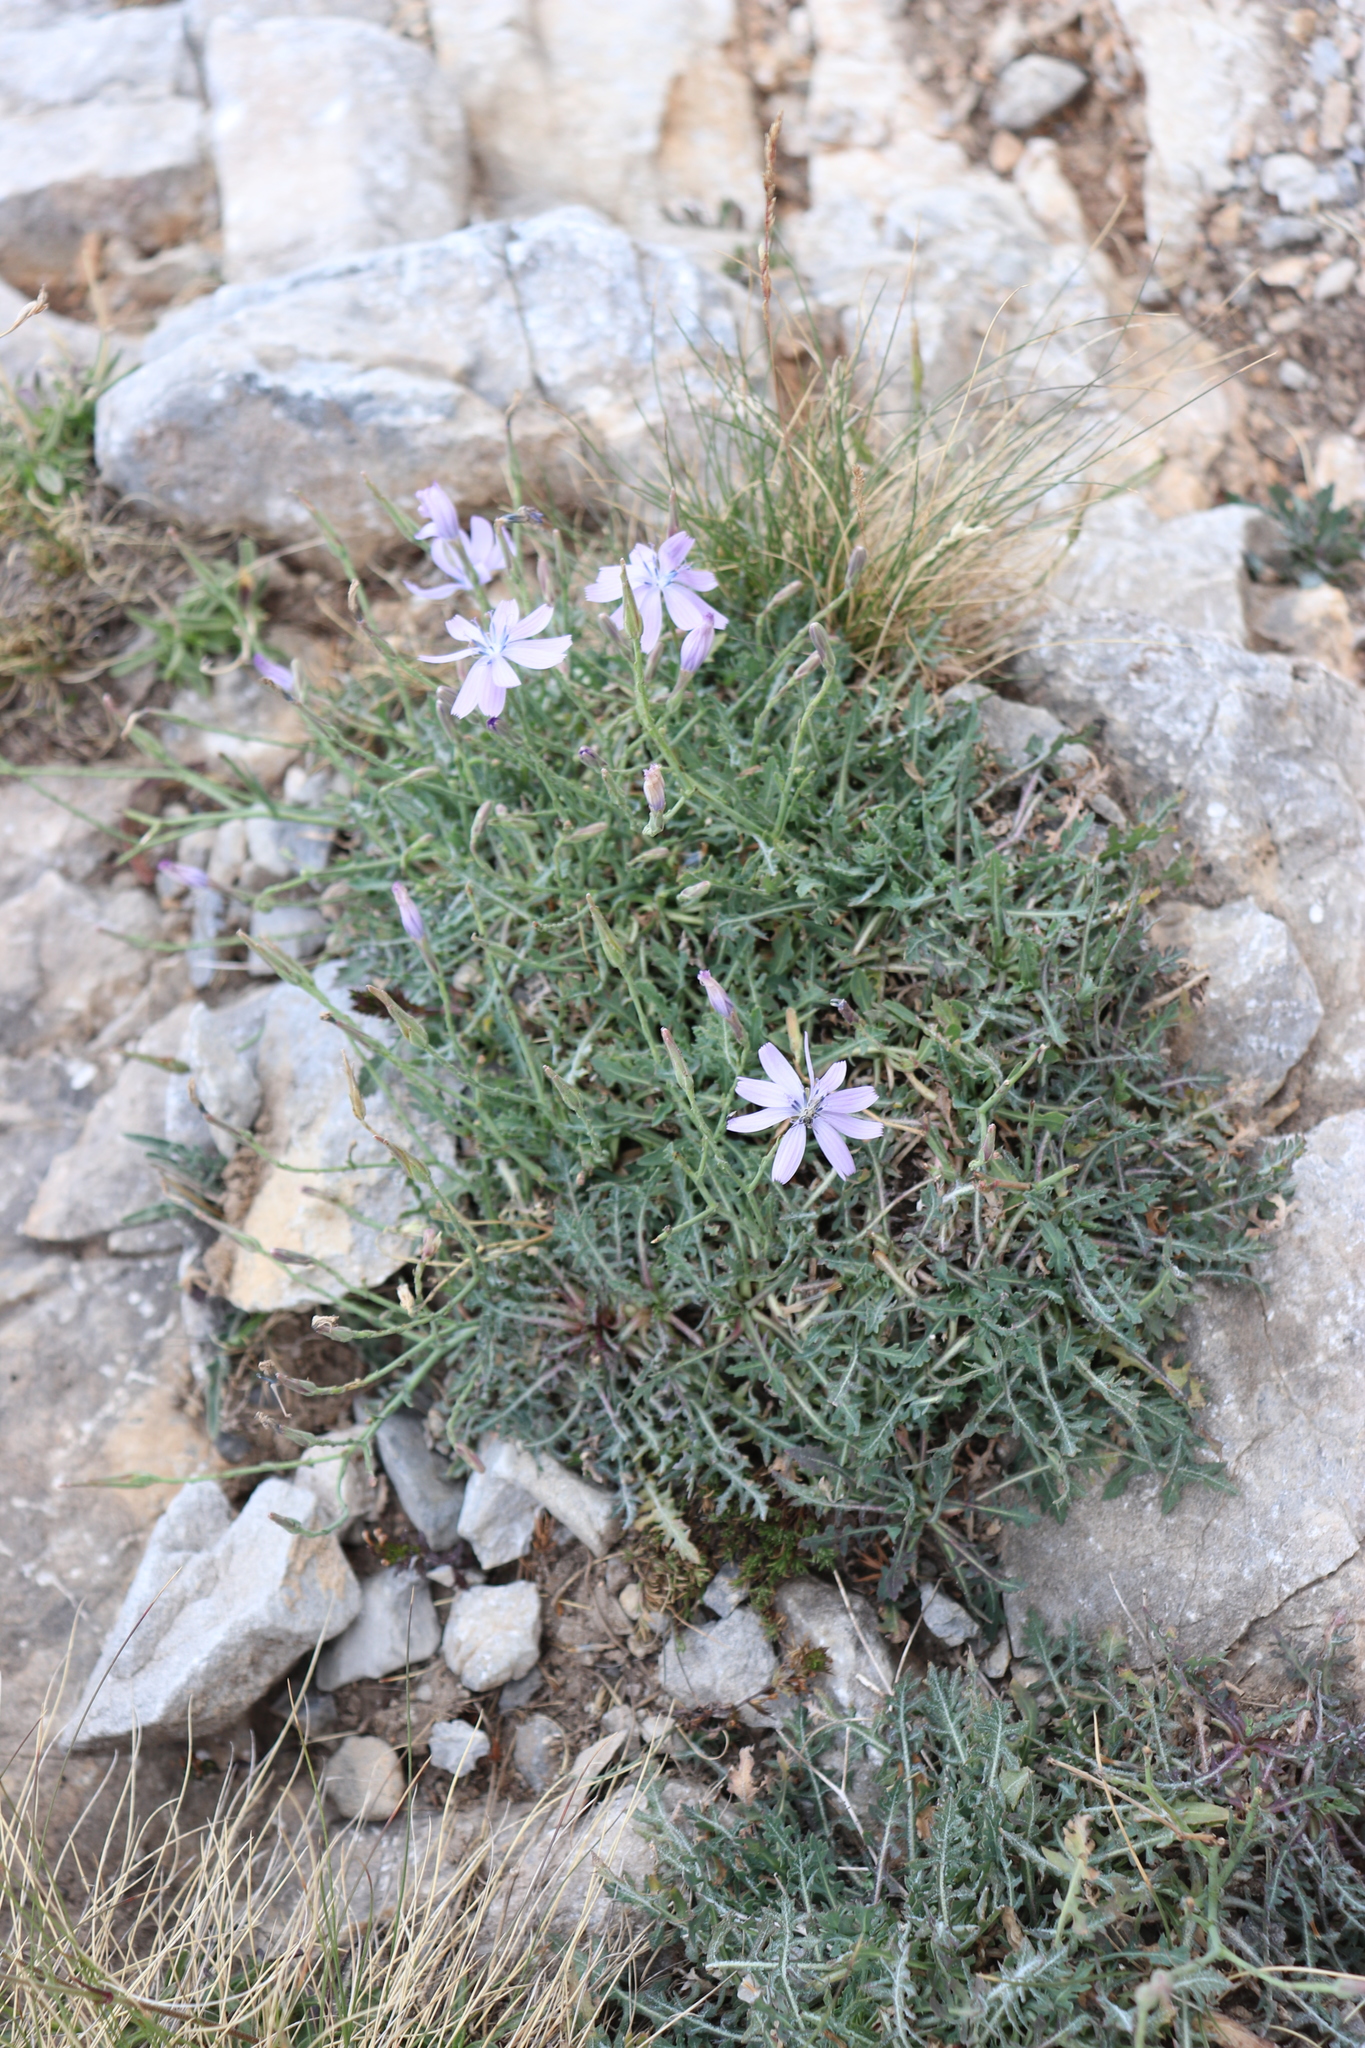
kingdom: Plantae
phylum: Tracheophyta
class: Magnoliopsida
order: Asterales
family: Asteraceae
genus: Lactuca
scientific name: Lactuca intricata
